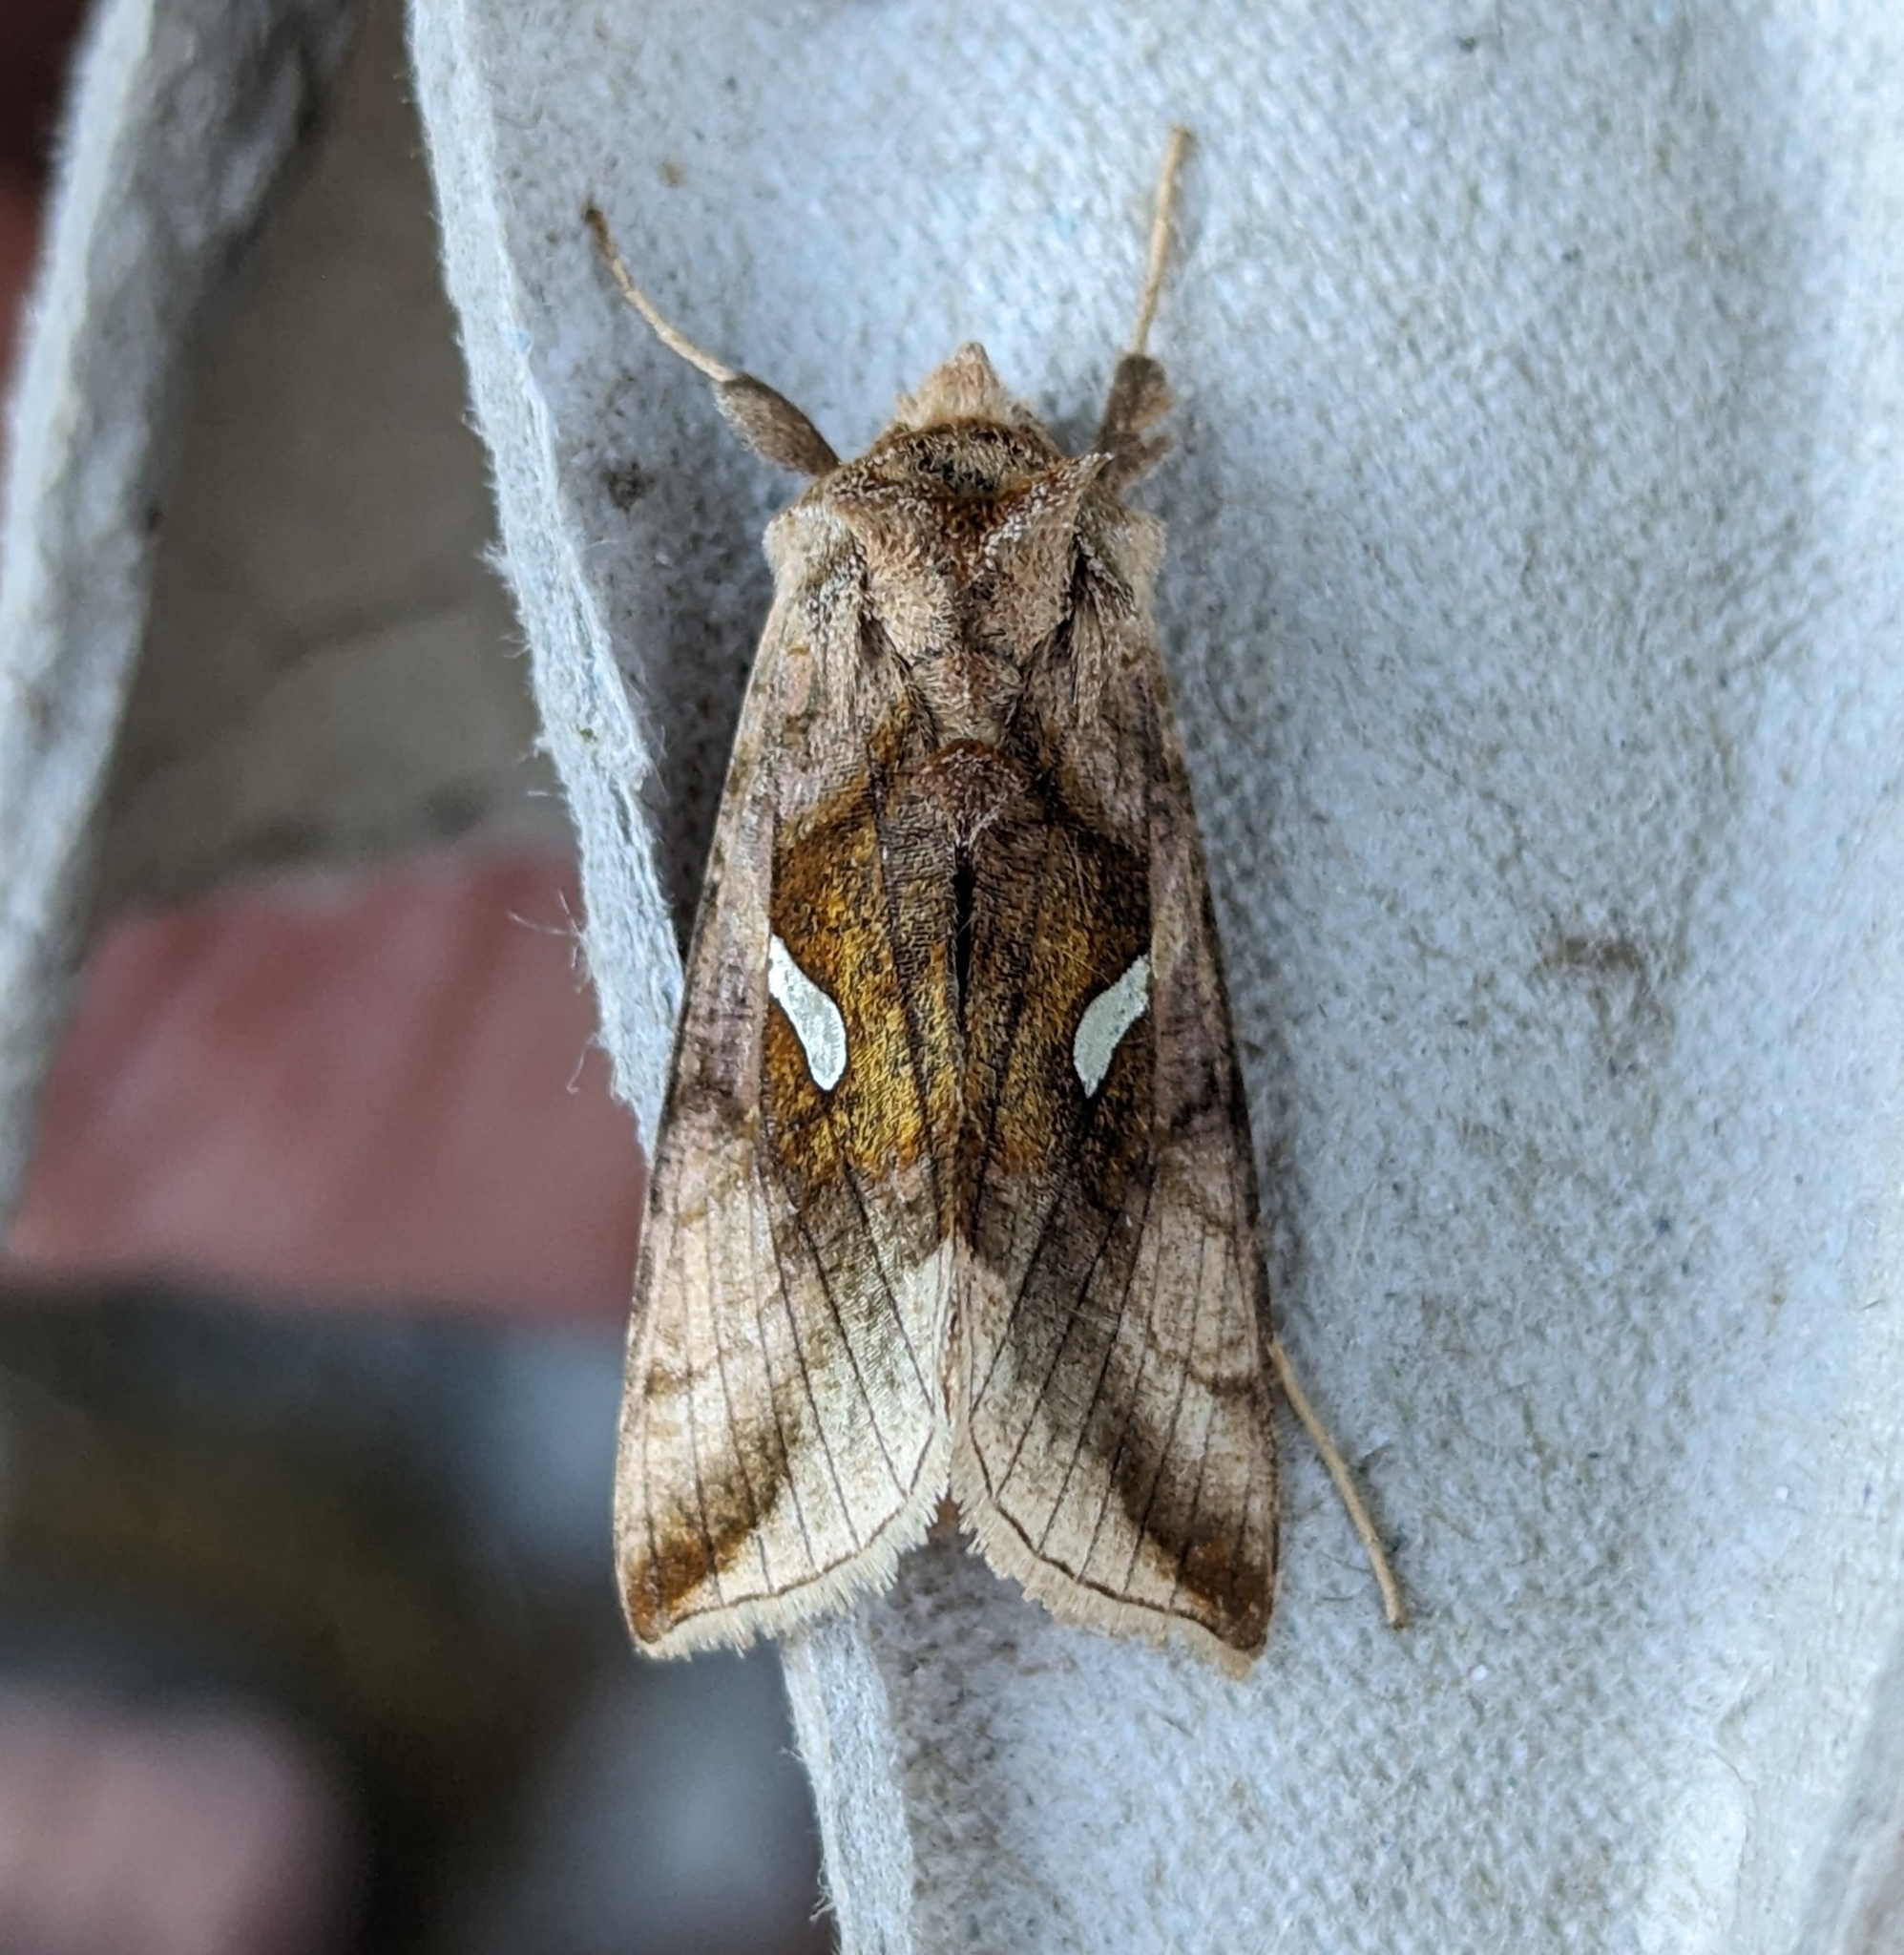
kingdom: Animalia
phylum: Arthropoda
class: Insecta
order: Lepidoptera
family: Noctuidae
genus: Autographa
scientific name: Autographa metallica
